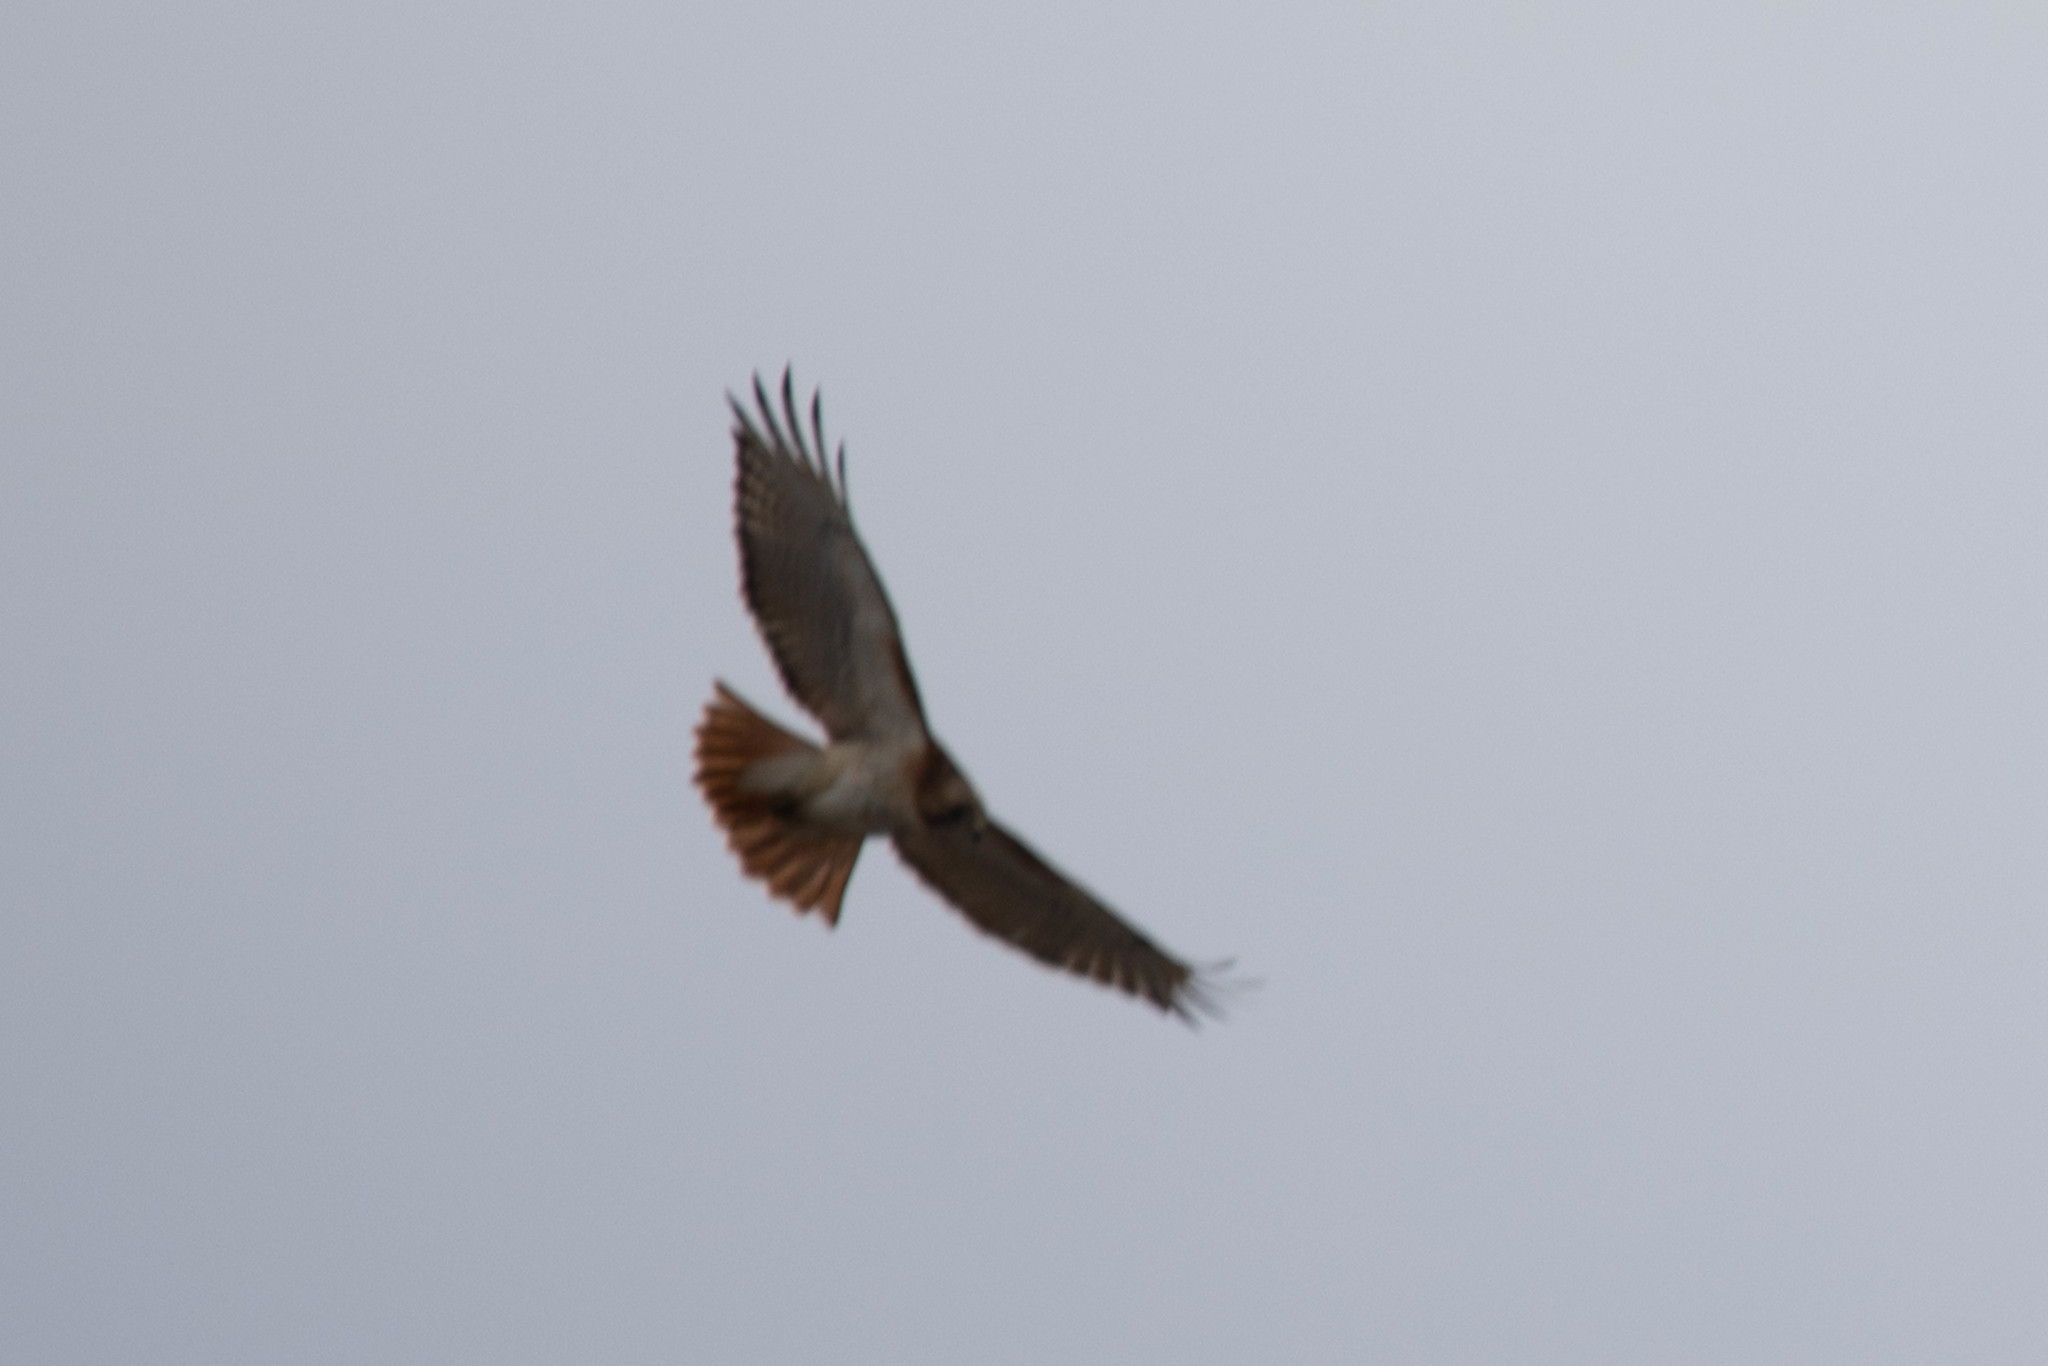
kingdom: Animalia
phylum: Chordata
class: Aves
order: Accipitriformes
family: Accipitridae
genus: Buteo
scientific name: Buteo jamaicensis
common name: Red-tailed hawk
